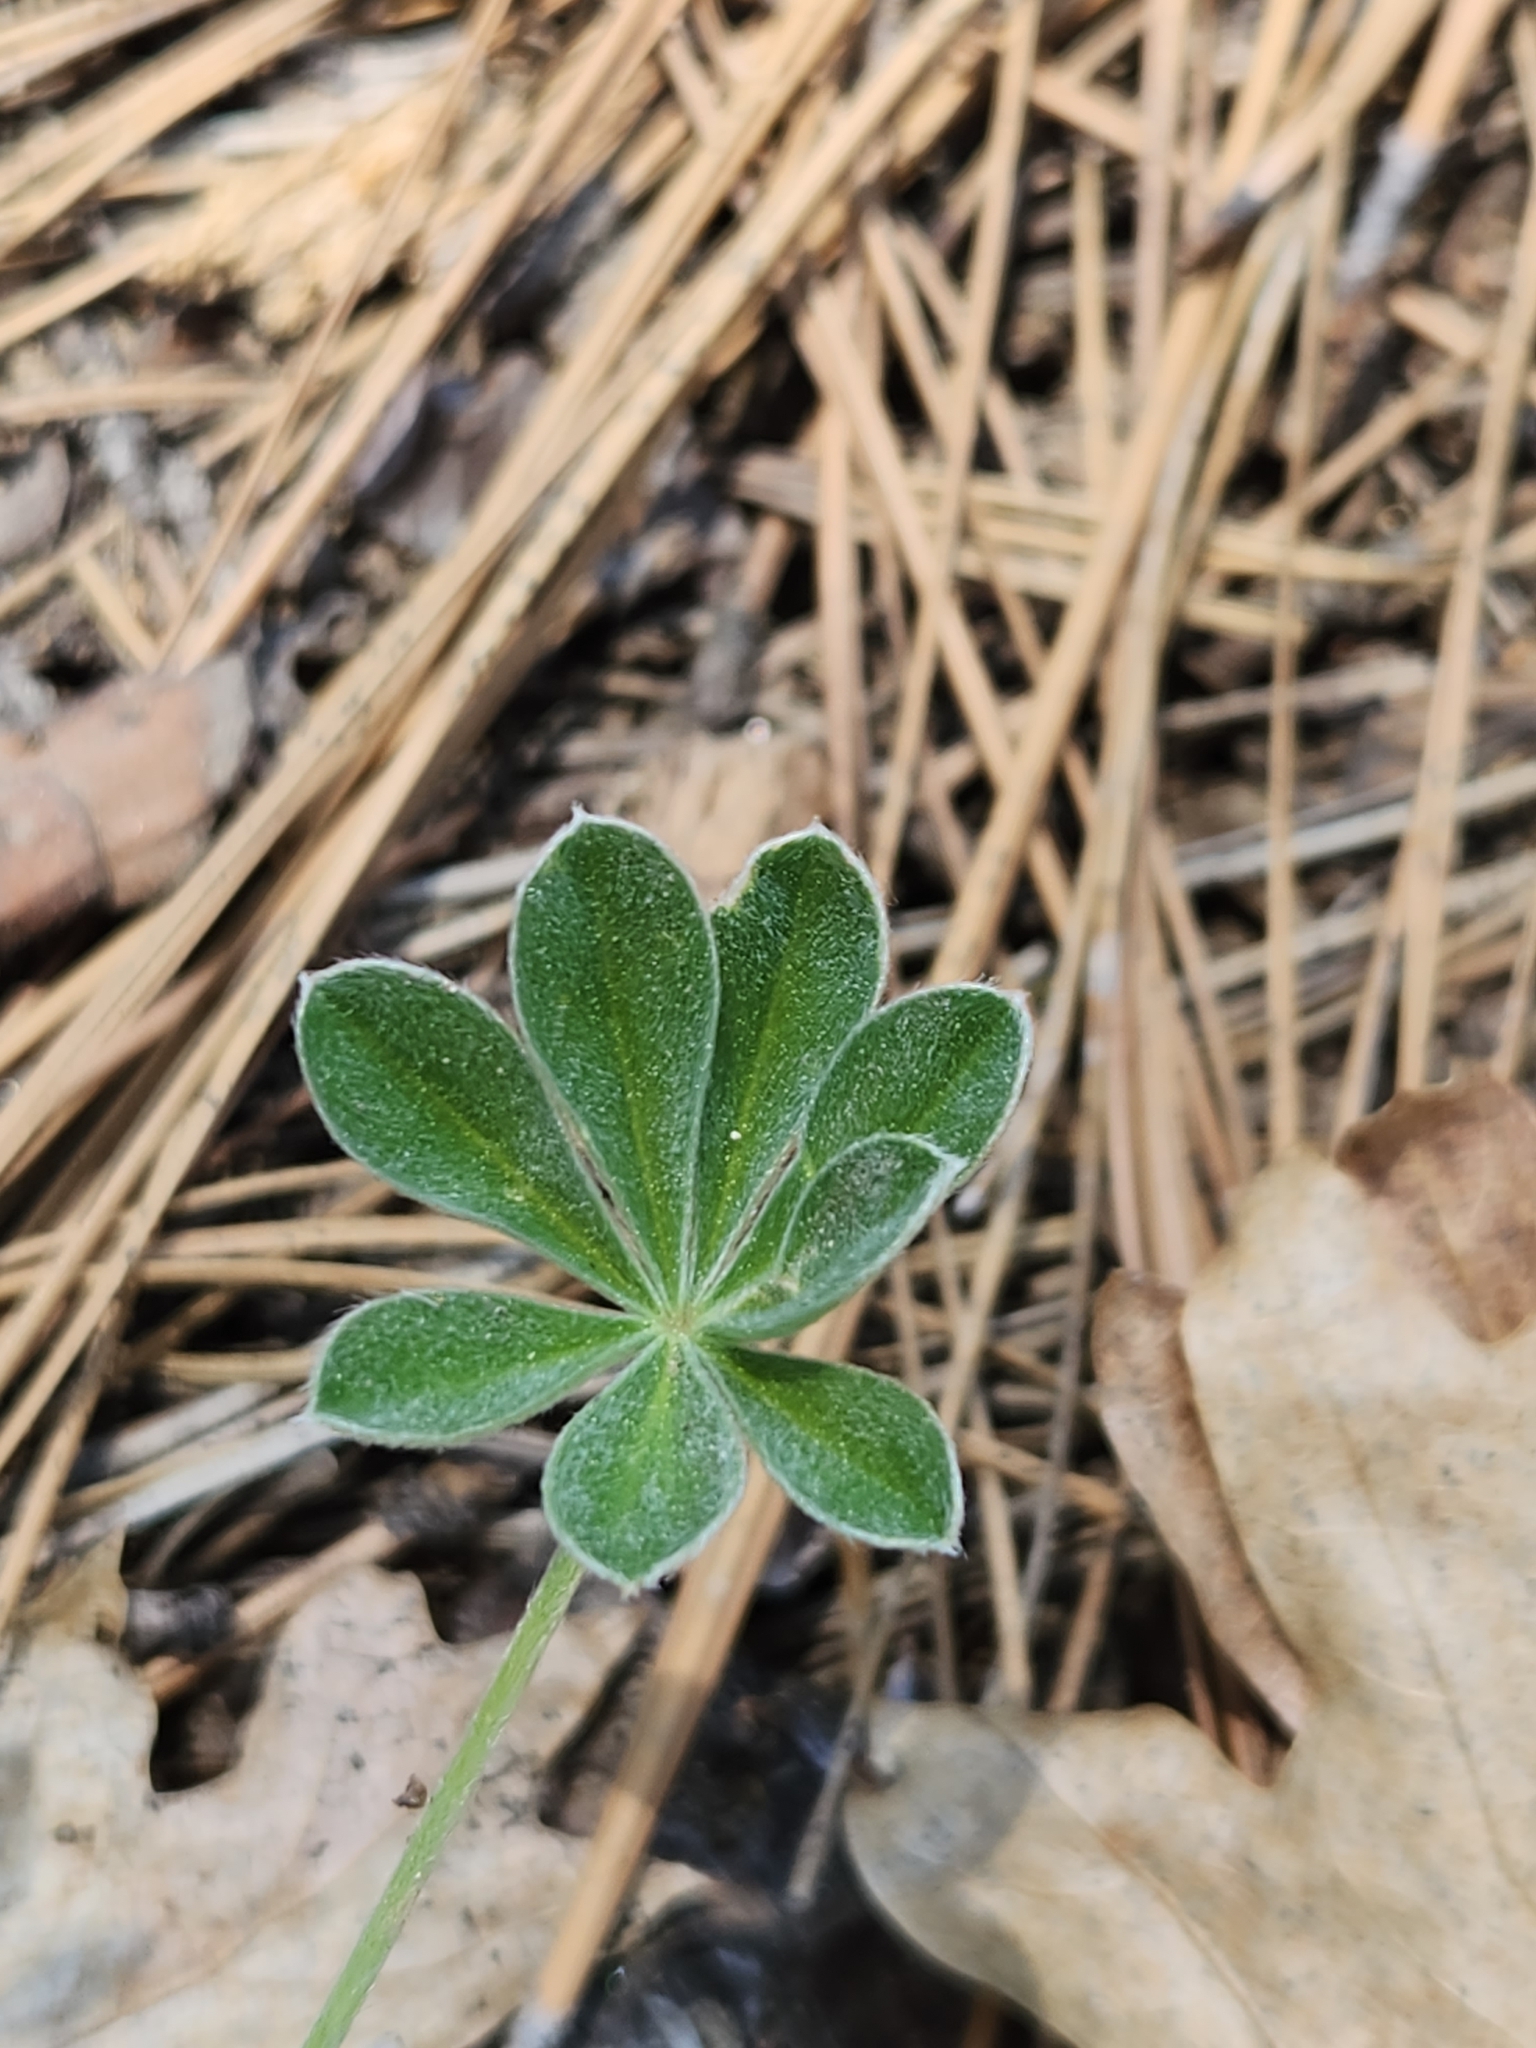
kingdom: Plantae
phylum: Tracheophyta
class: Magnoliopsida
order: Fabales
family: Fabaceae
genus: Lupinus
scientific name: Lupinus excubitus
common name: Grape soda lupine
